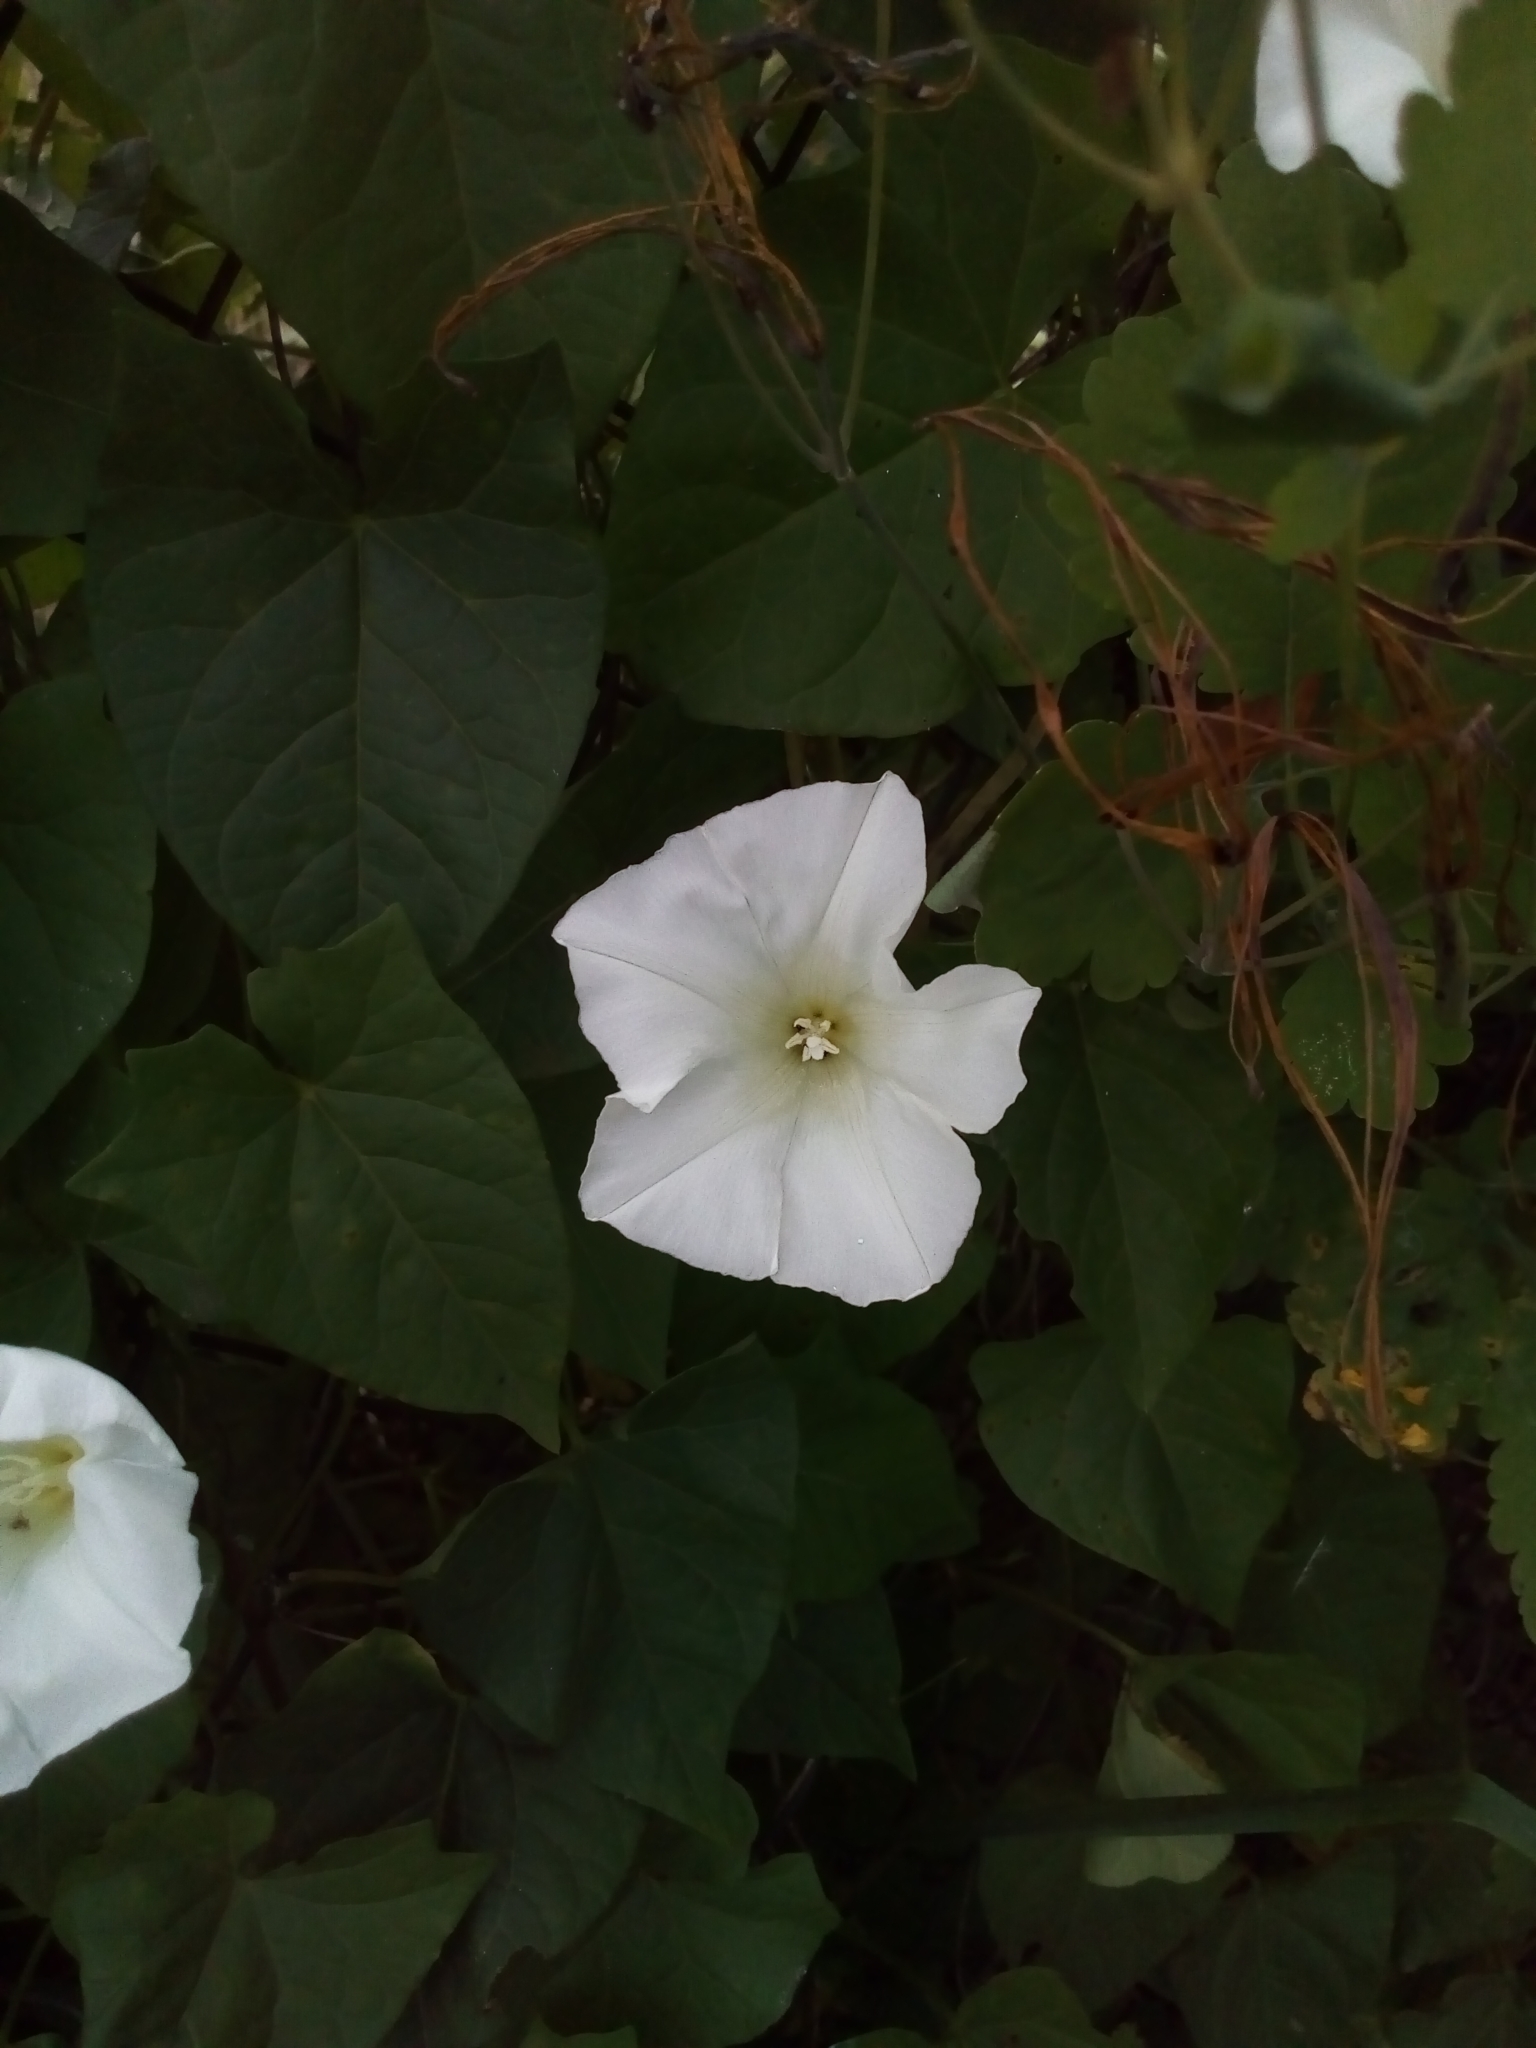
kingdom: Plantae
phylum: Tracheophyta
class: Magnoliopsida
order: Solanales
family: Convolvulaceae
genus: Calystegia
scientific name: Calystegia sepium
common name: Hedge bindweed
